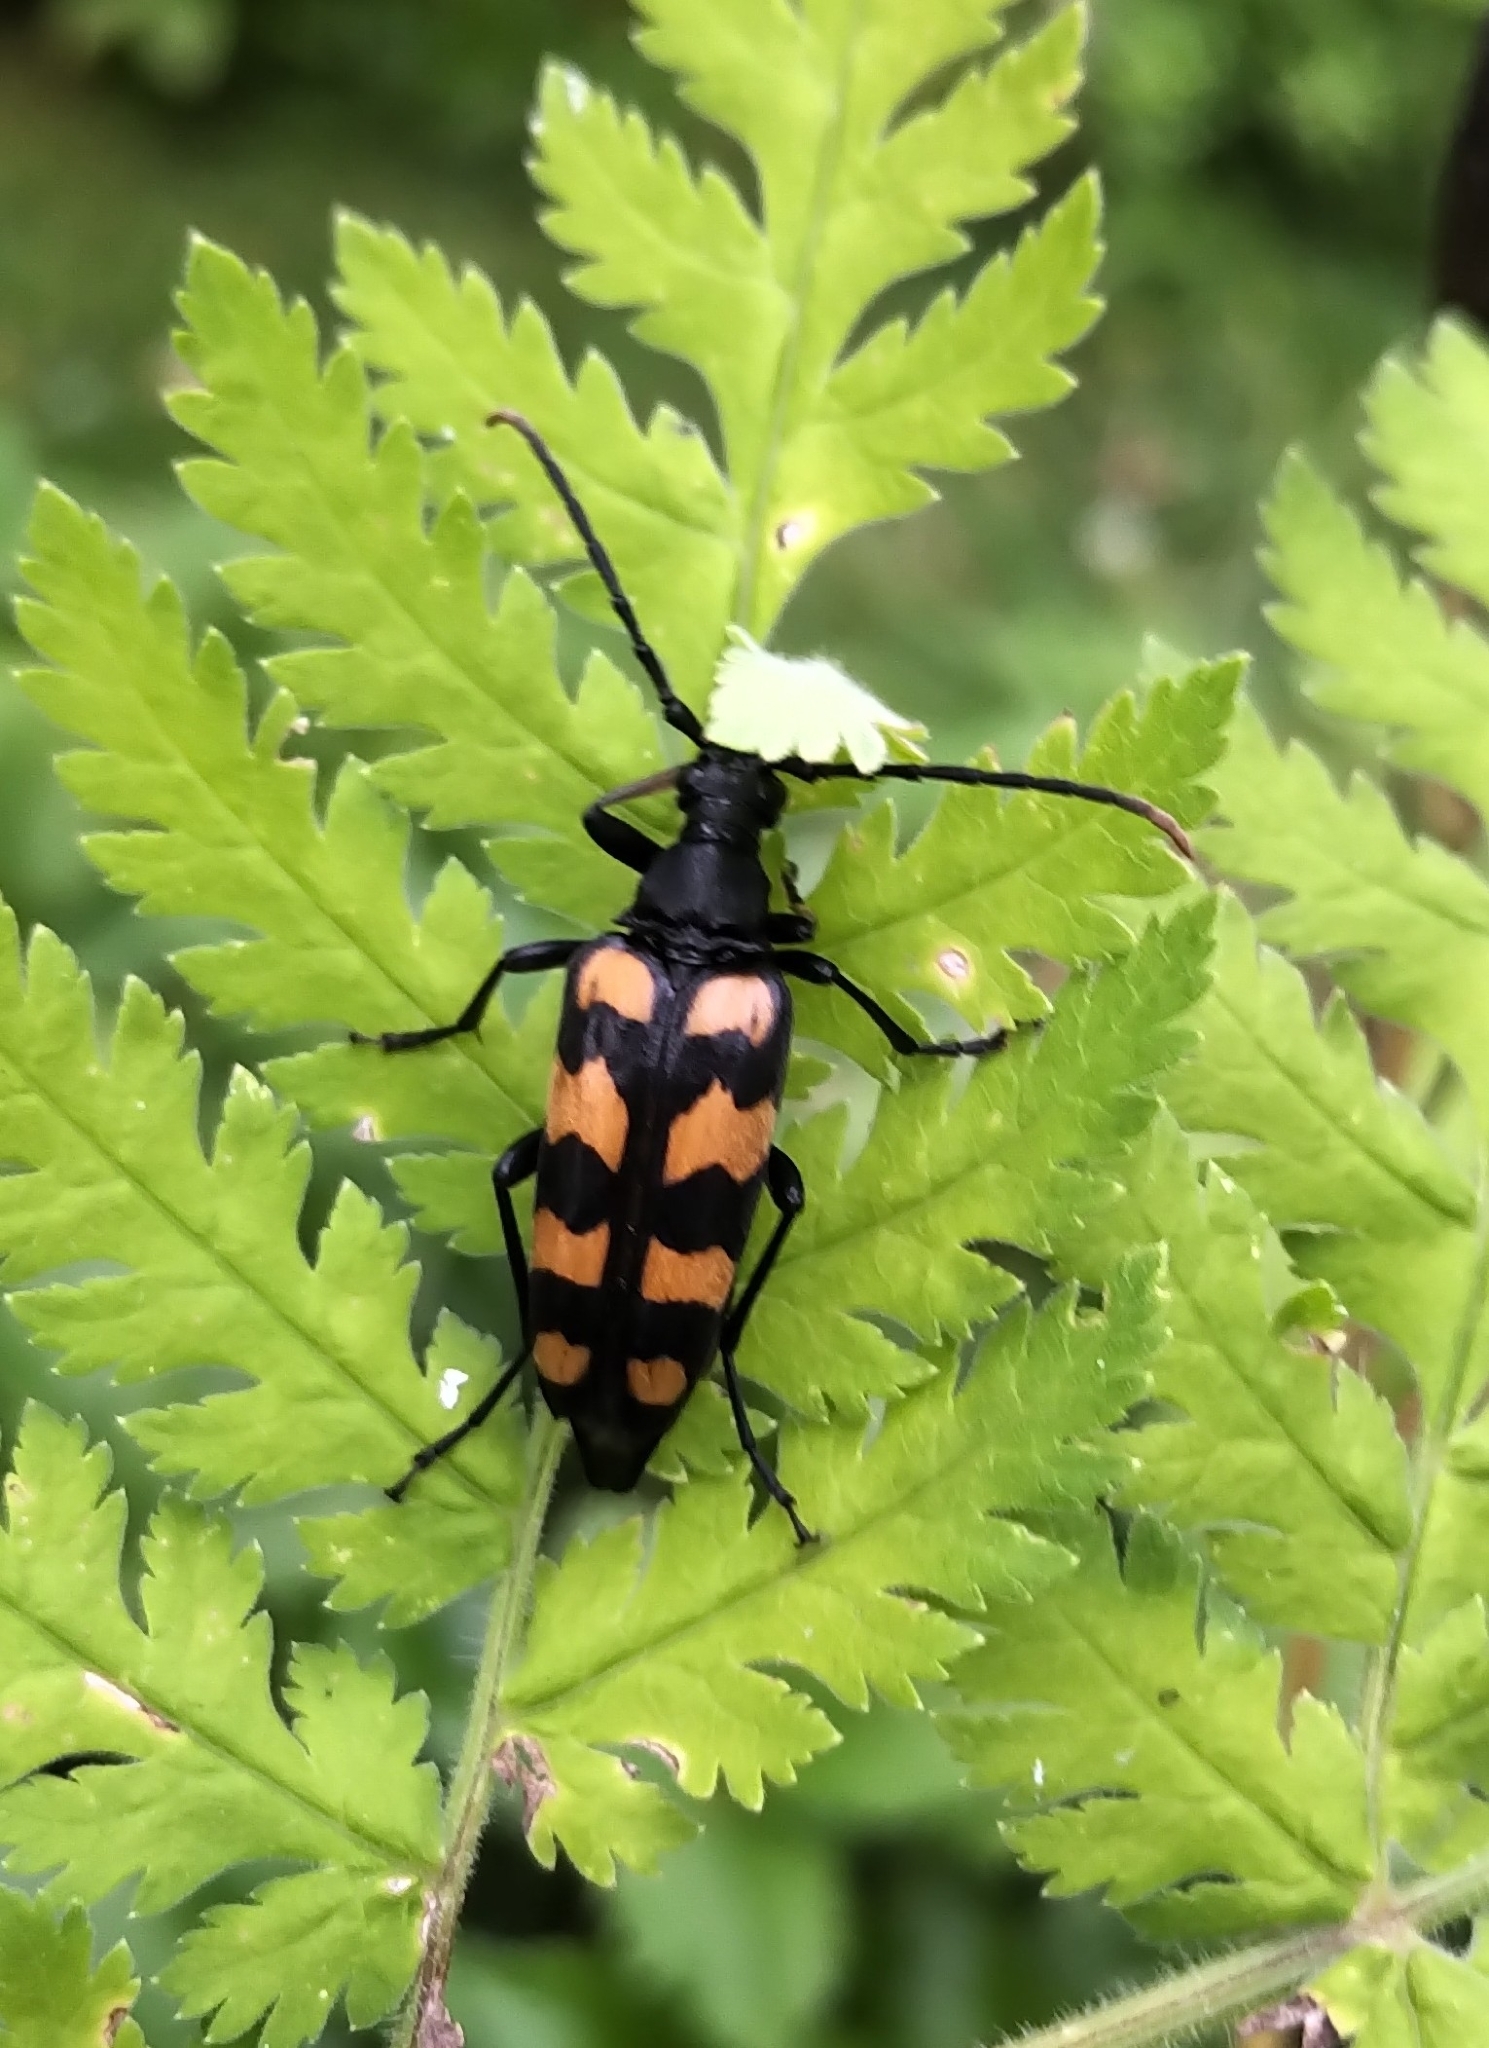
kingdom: Animalia
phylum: Arthropoda
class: Insecta
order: Coleoptera
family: Cerambycidae
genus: Leptura
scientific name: Leptura quadrifasciata
